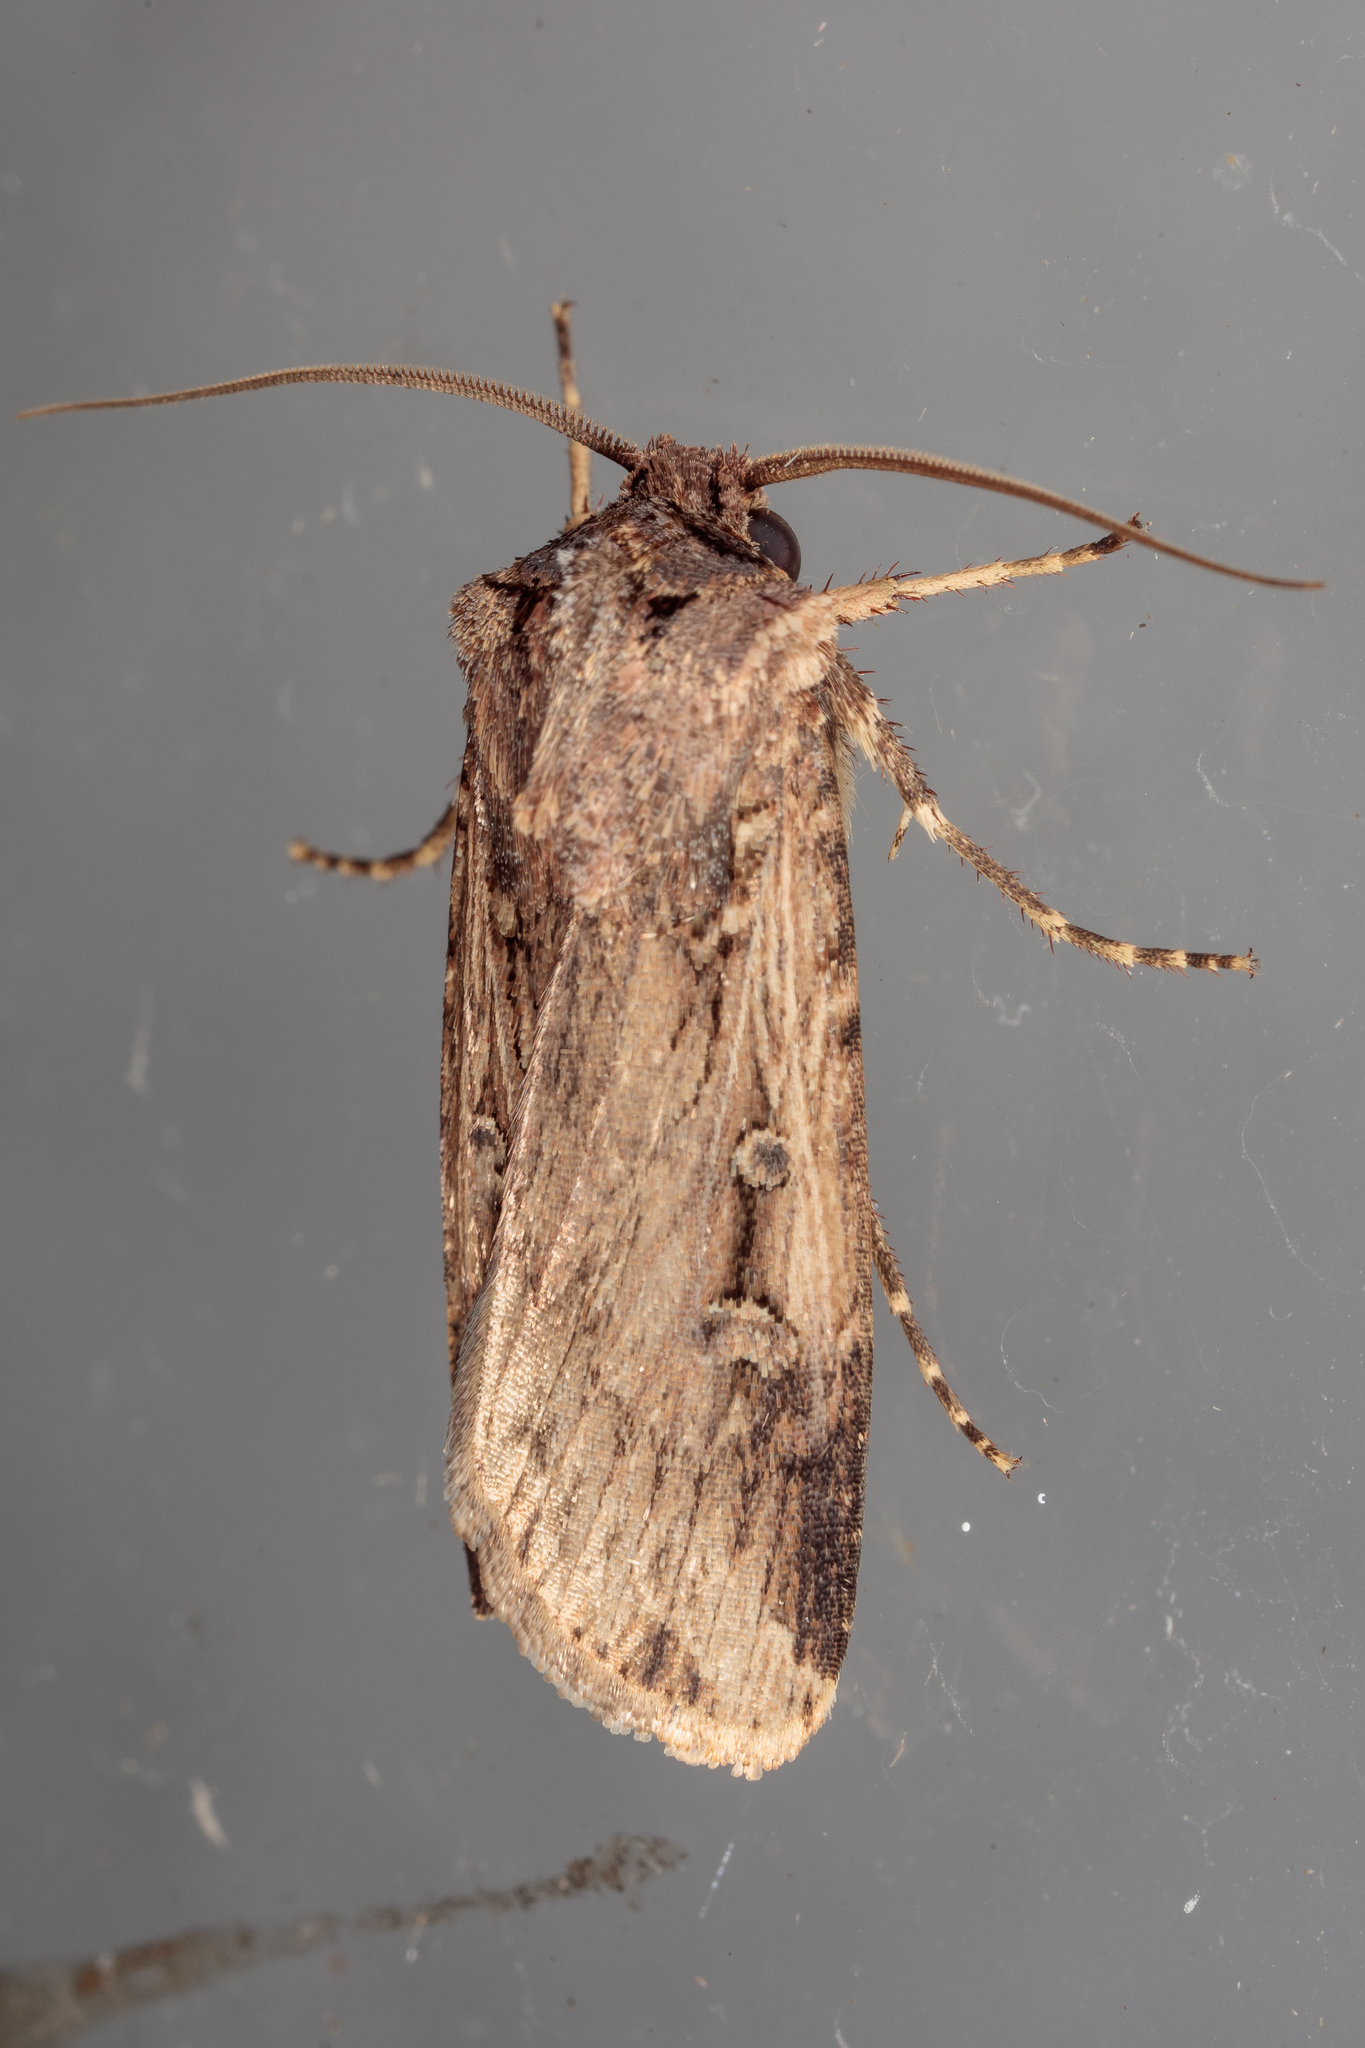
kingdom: Animalia
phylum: Arthropoda
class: Insecta
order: Lepidoptera
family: Noctuidae
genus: Feltia
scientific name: Feltia subterranea
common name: Granulate cutworm
